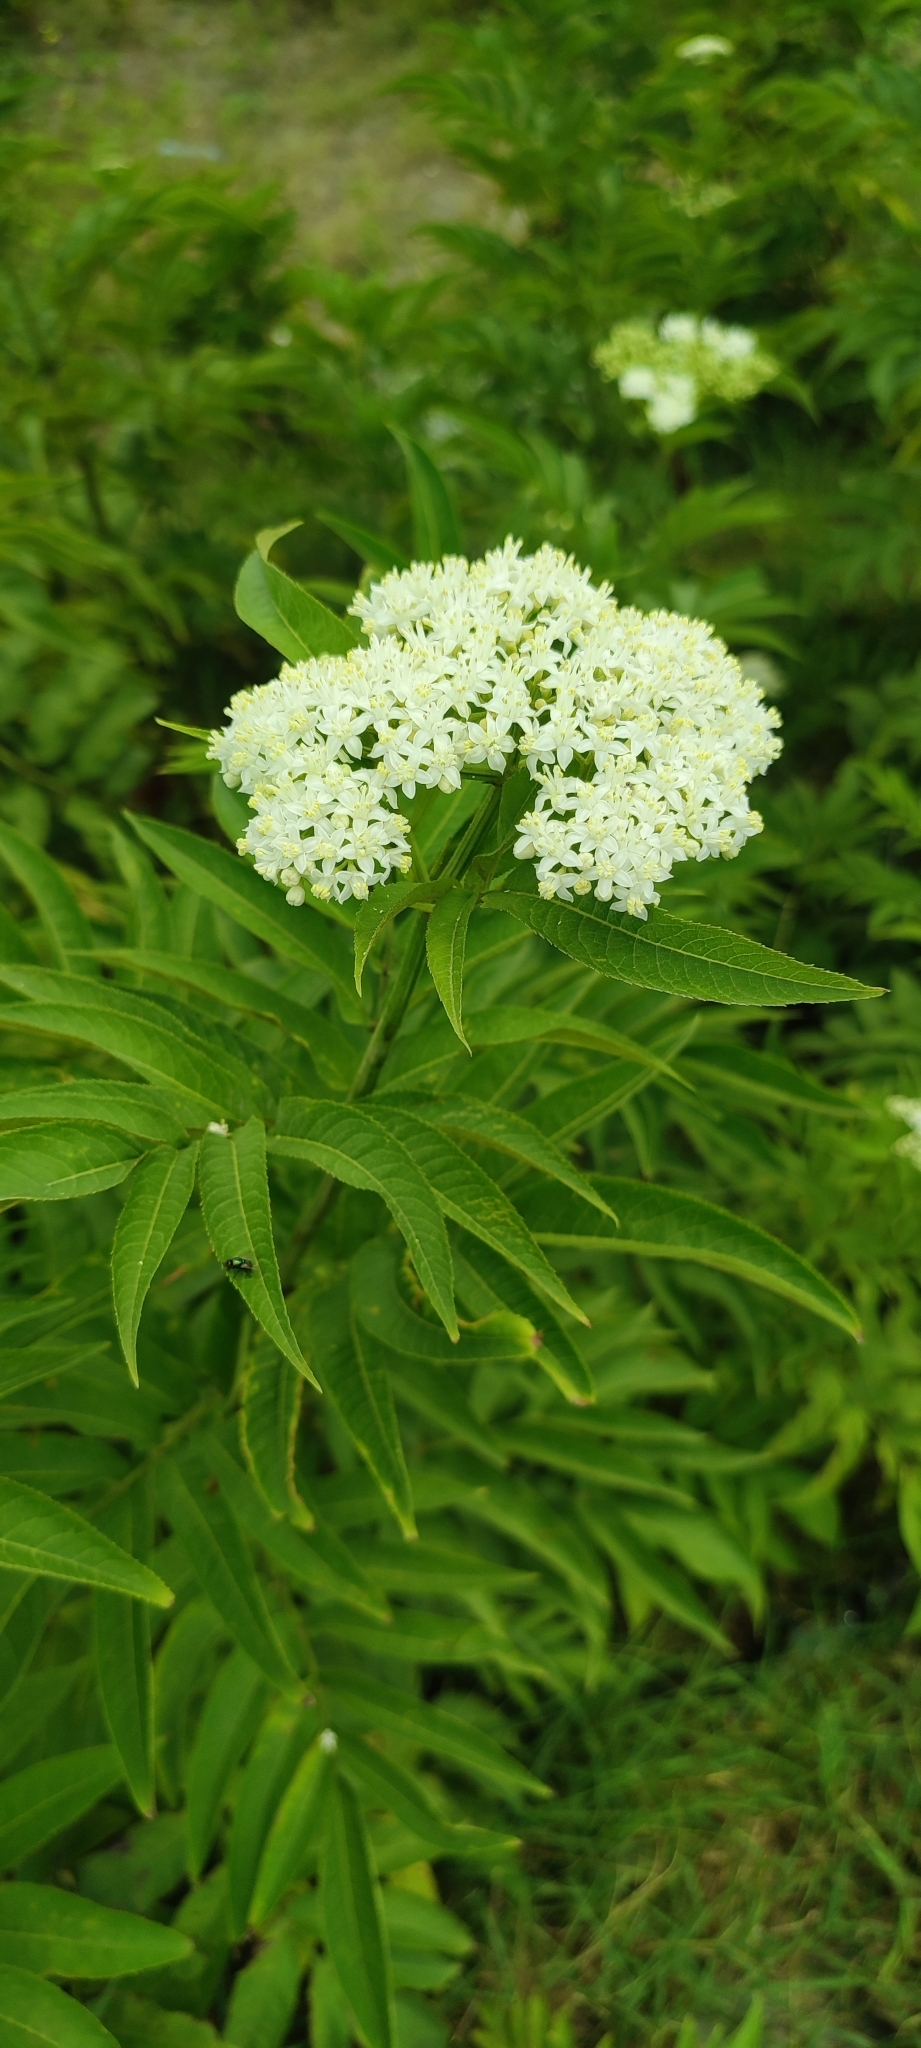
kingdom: Plantae
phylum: Tracheophyta
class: Magnoliopsida
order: Dipsacales
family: Viburnaceae
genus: Sambucus
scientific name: Sambucus ebulus
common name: Dwarf elder
